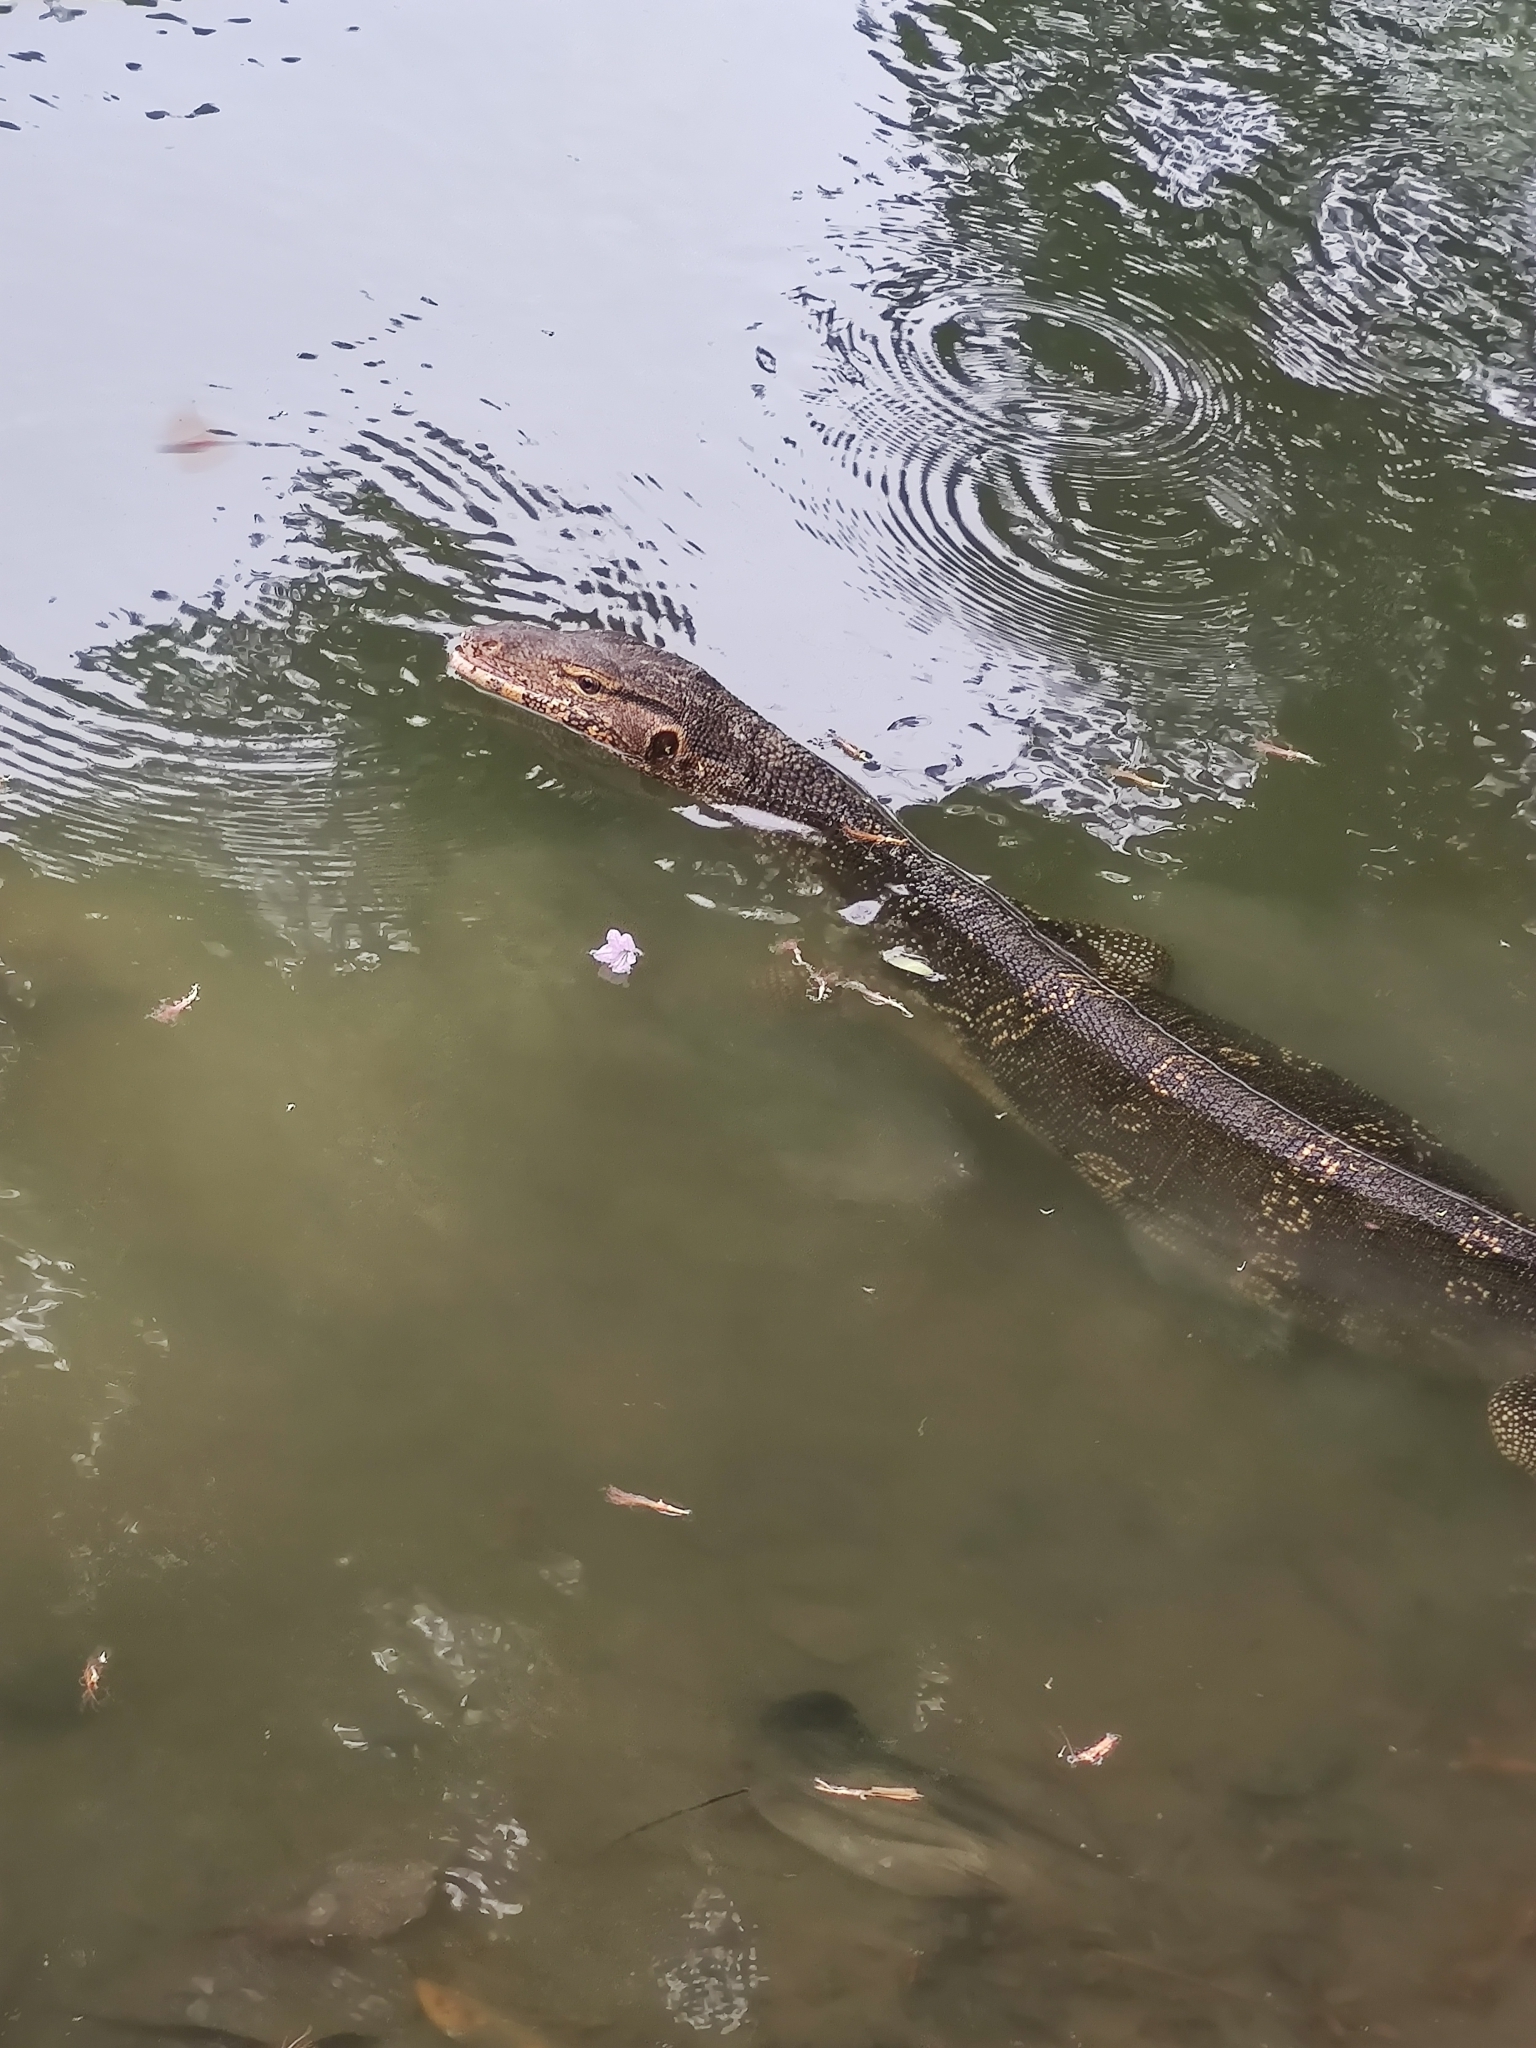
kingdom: Animalia
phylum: Chordata
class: Squamata
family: Varanidae
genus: Varanus
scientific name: Varanus salvator
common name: Common water monitor
